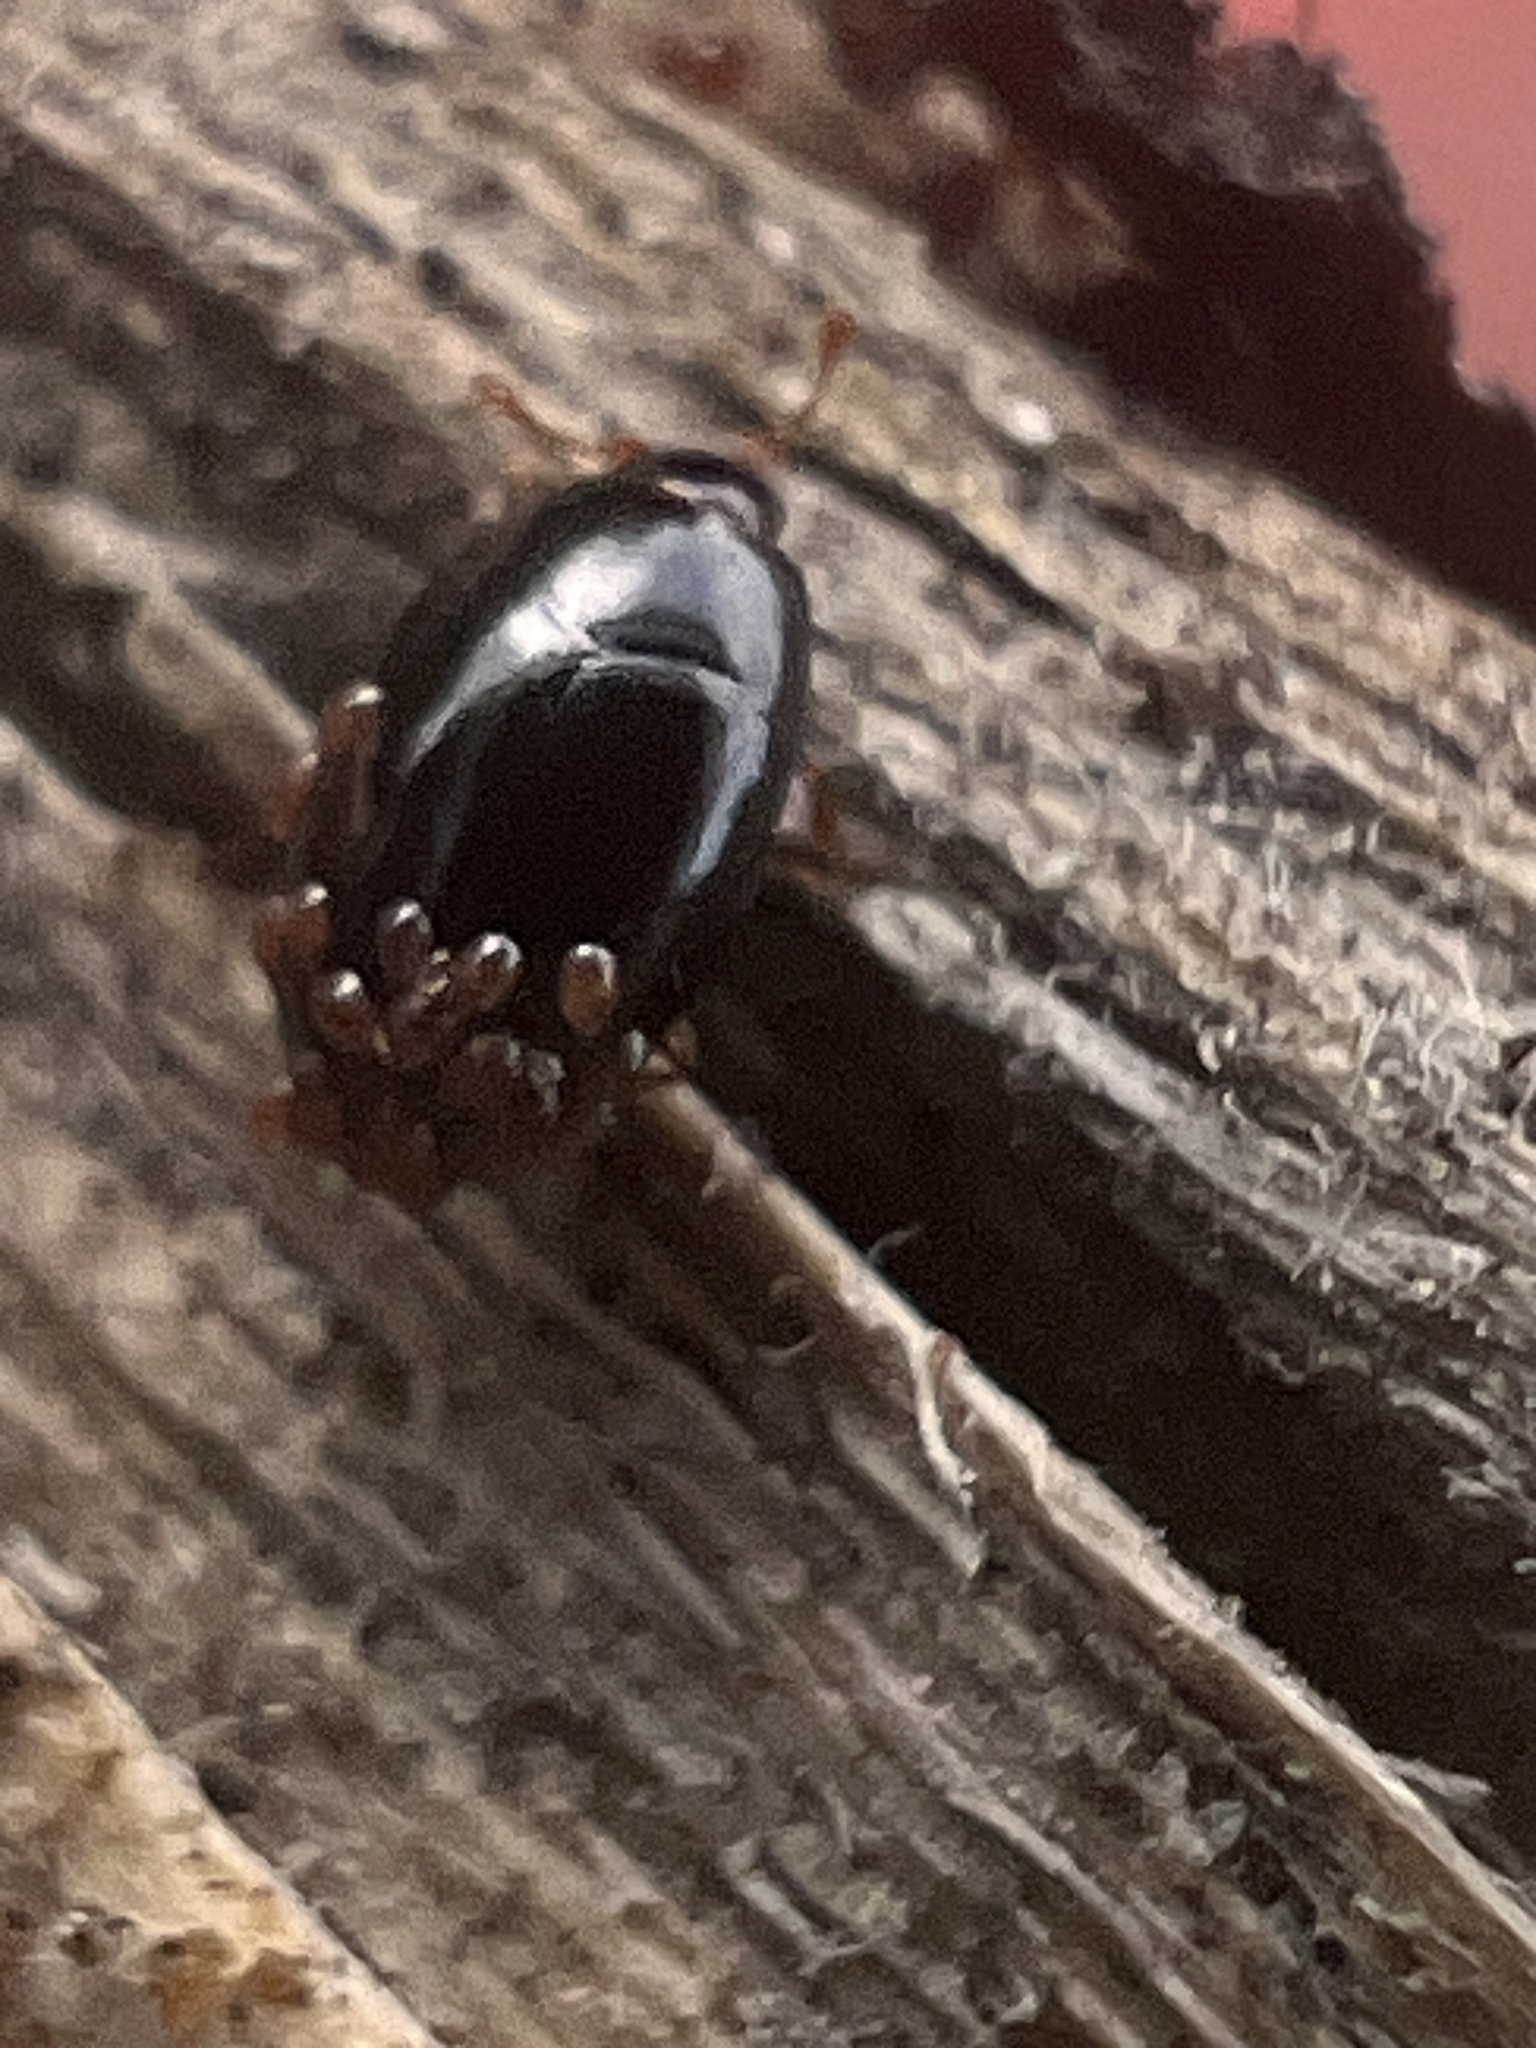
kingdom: Animalia
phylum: Arthropoda
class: Insecta
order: Coleoptera
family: Cerylonidae
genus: Hypodacnella
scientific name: Hypodacnella
